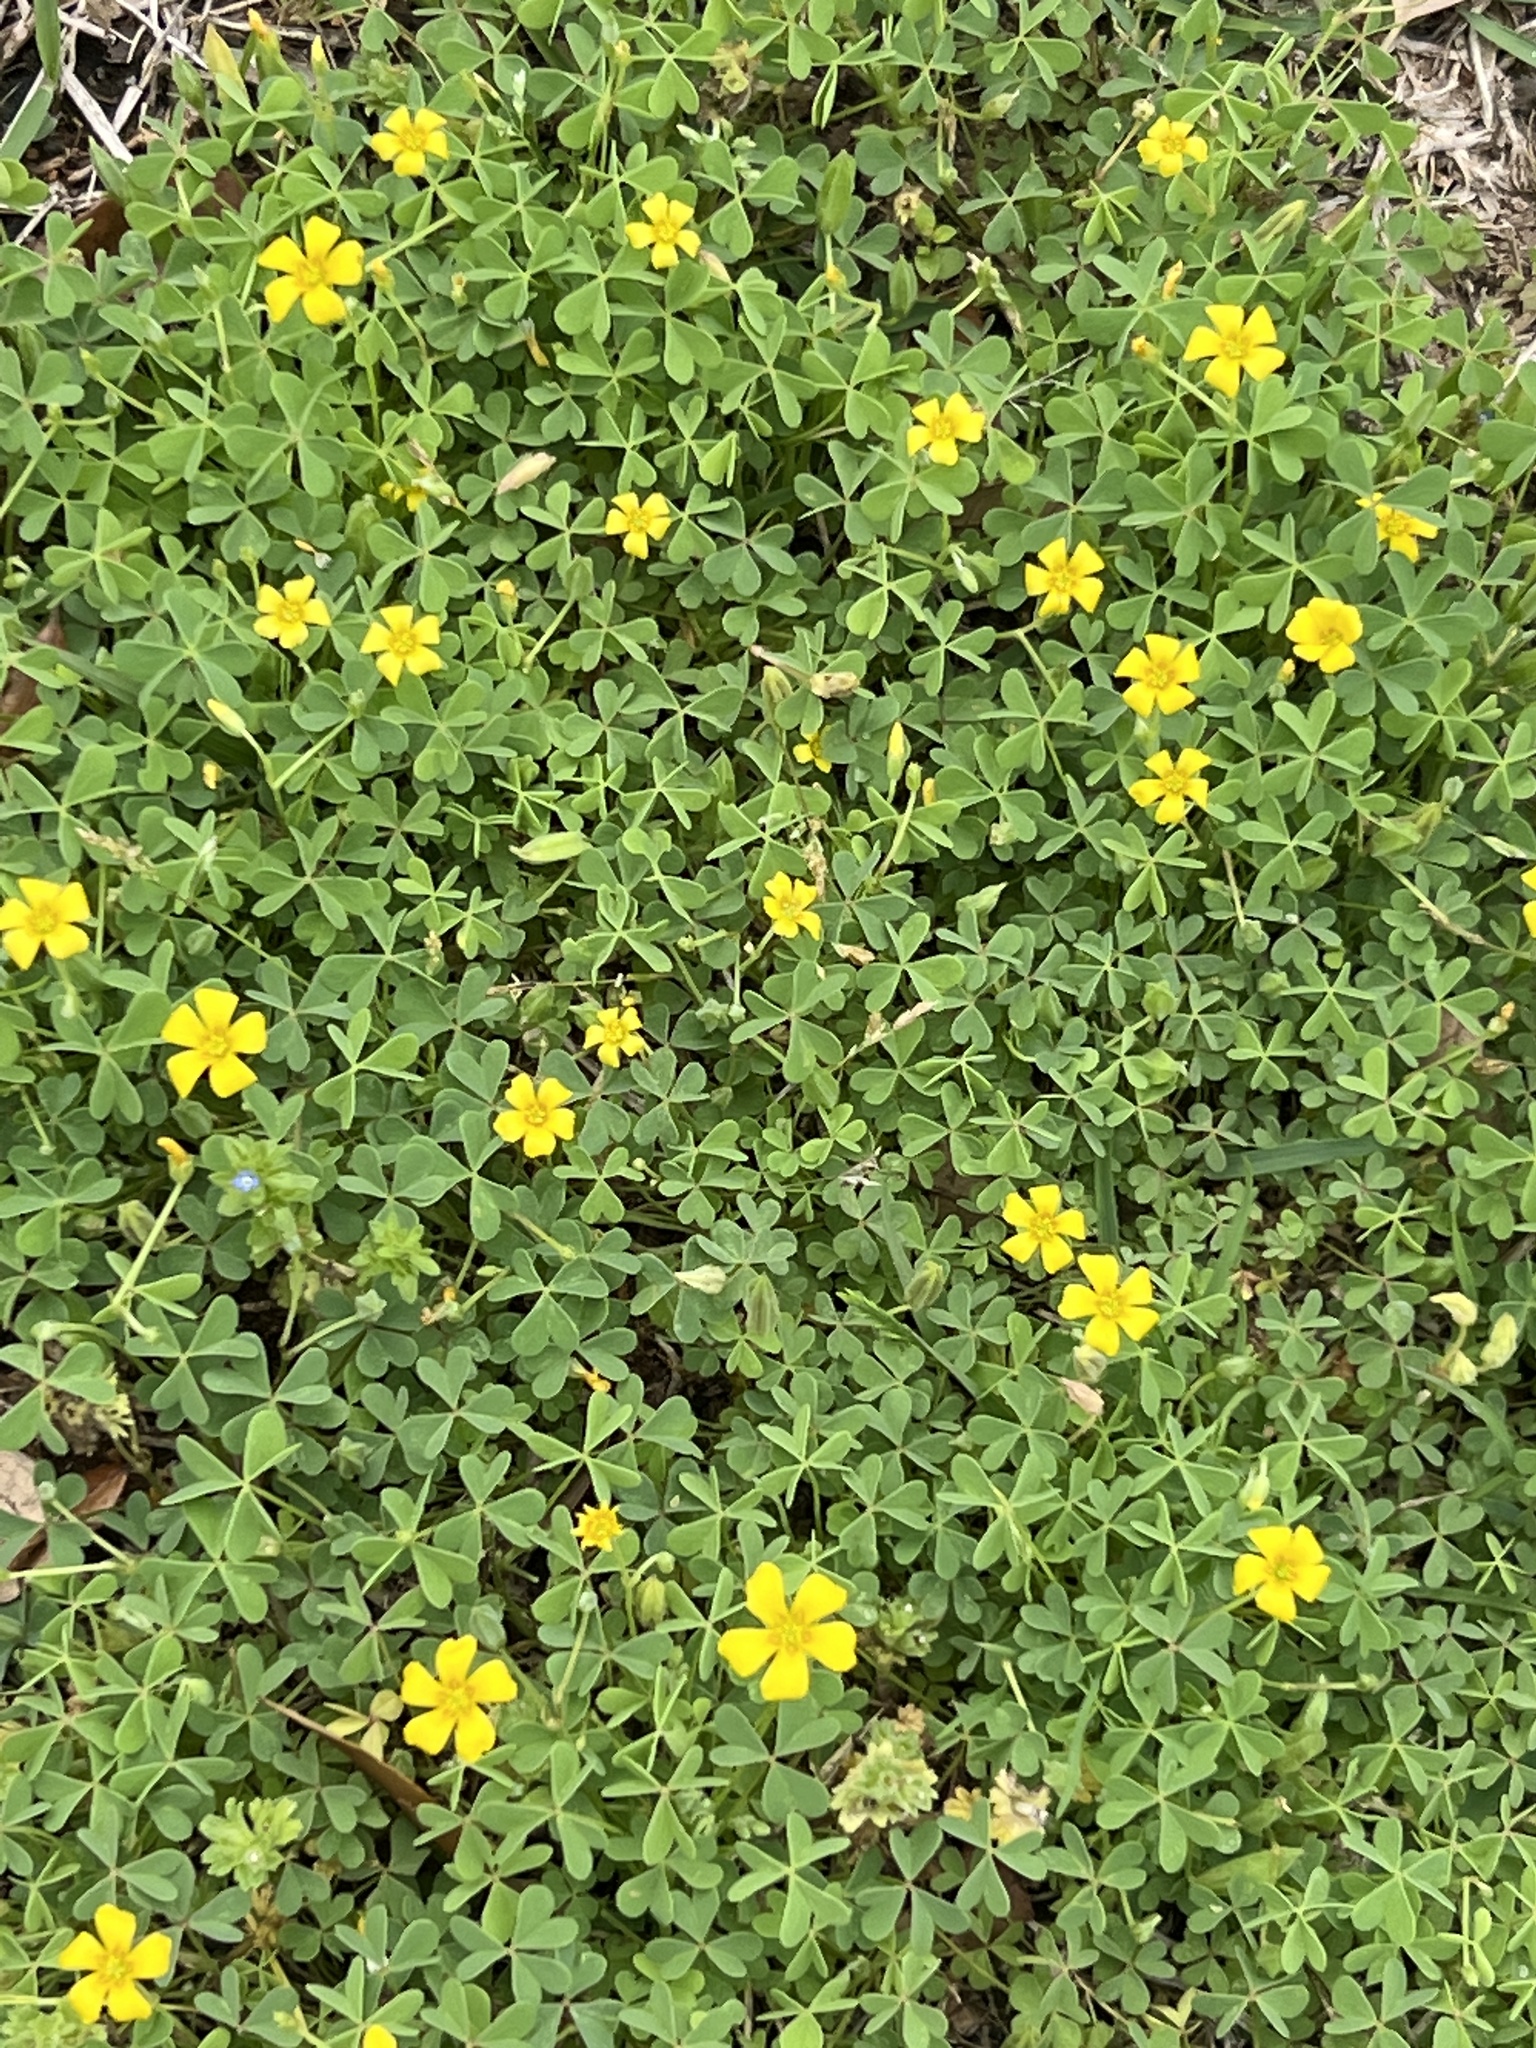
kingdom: Plantae
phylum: Tracheophyta
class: Magnoliopsida
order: Oxalidales
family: Oxalidaceae
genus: Oxalis
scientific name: Oxalis dillenii
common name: Sussex yellow-sorrel
